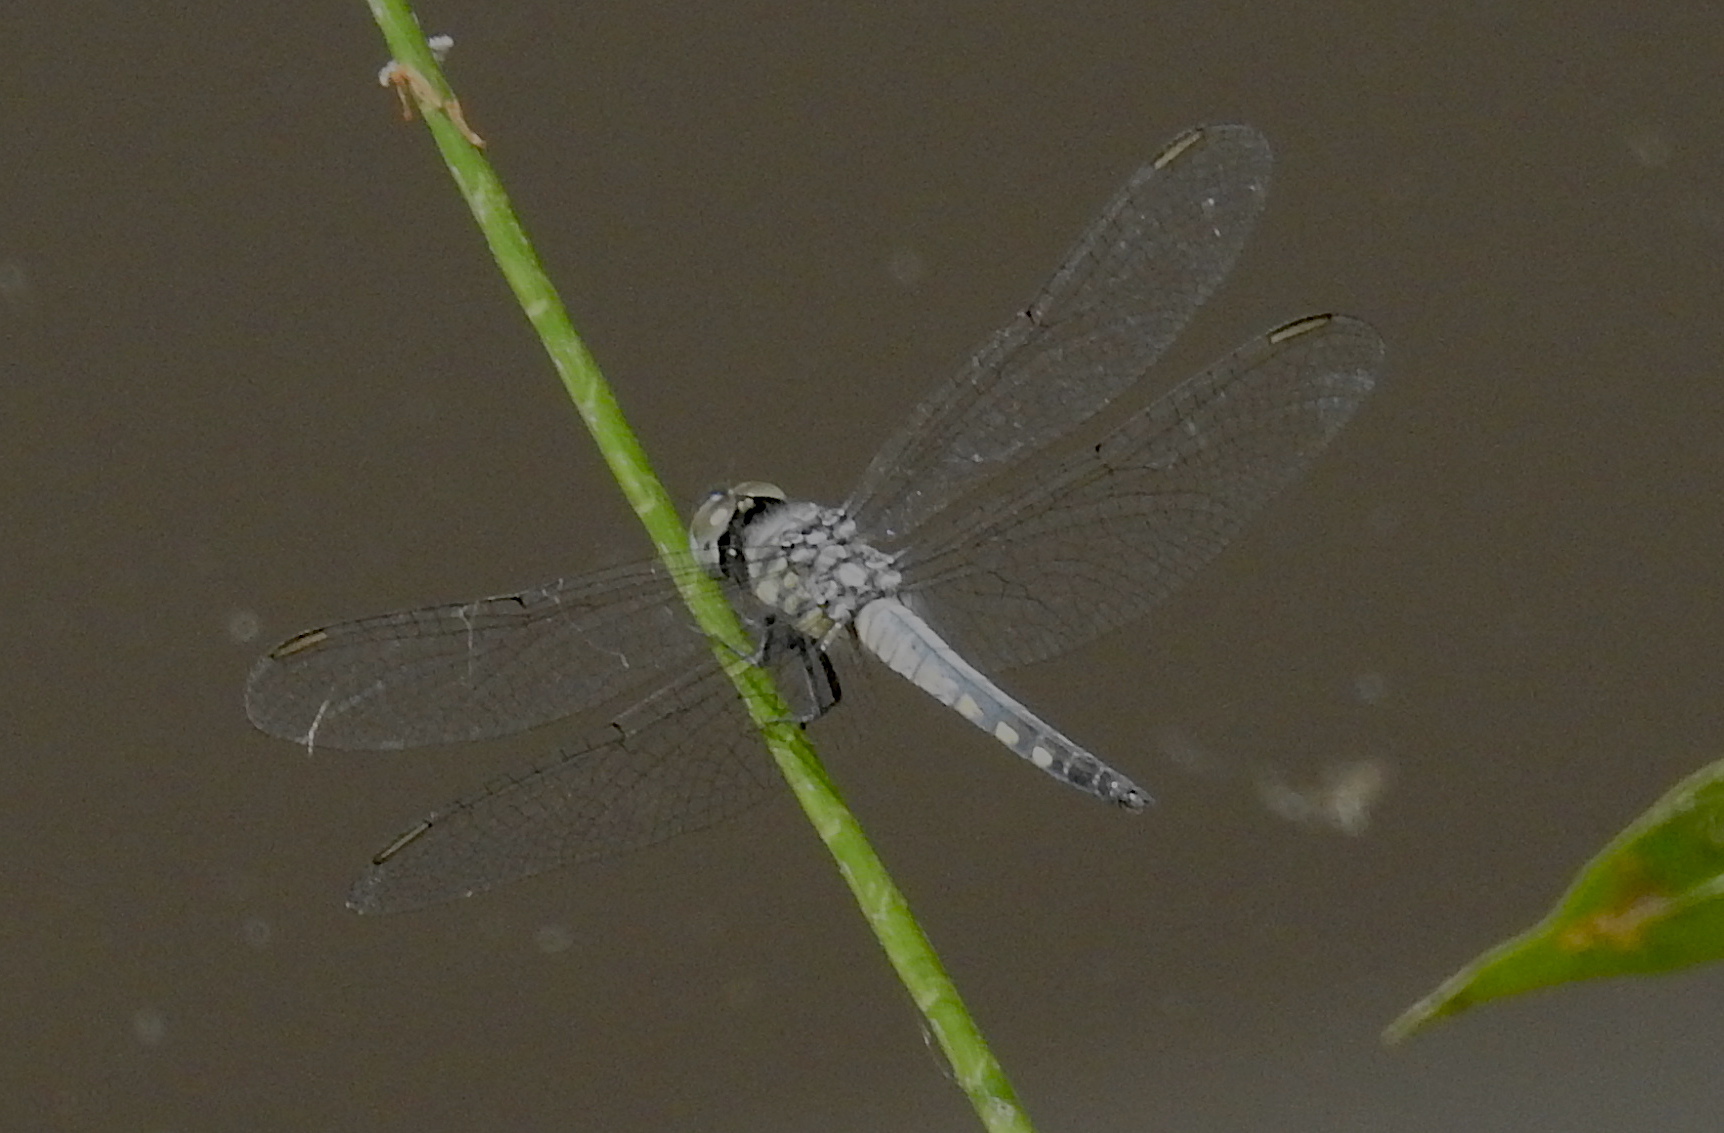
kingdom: Animalia
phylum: Arthropoda
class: Insecta
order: Odonata
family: Libellulidae
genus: Brachydiplax
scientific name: Brachydiplax sobrina
